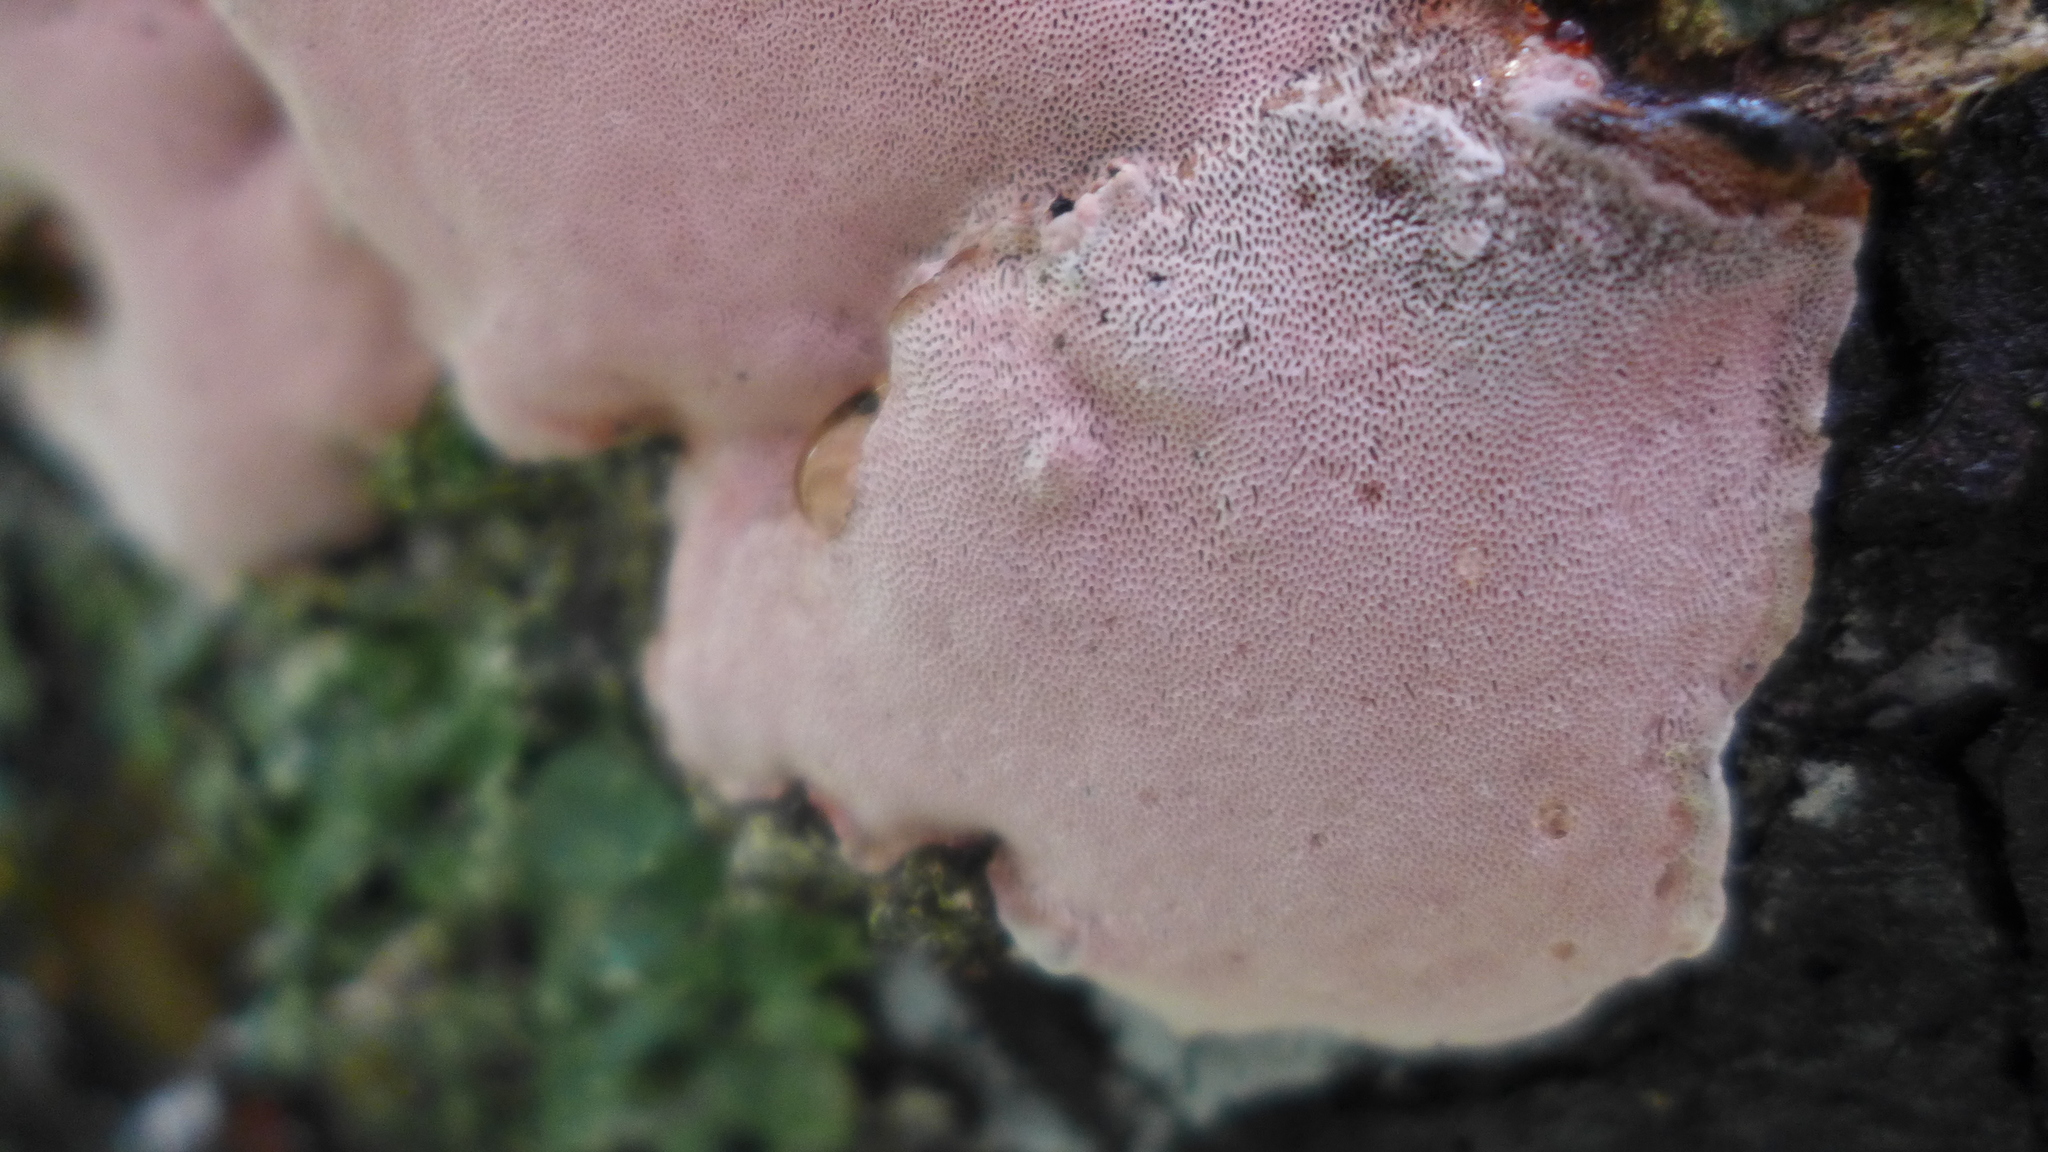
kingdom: Fungi
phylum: Basidiomycota
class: Agaricomycetes
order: Polyporales
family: Fomitopsidaceae
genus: Rhodofomes
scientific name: Rhodofomes cajanderi
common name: Rosy conk
